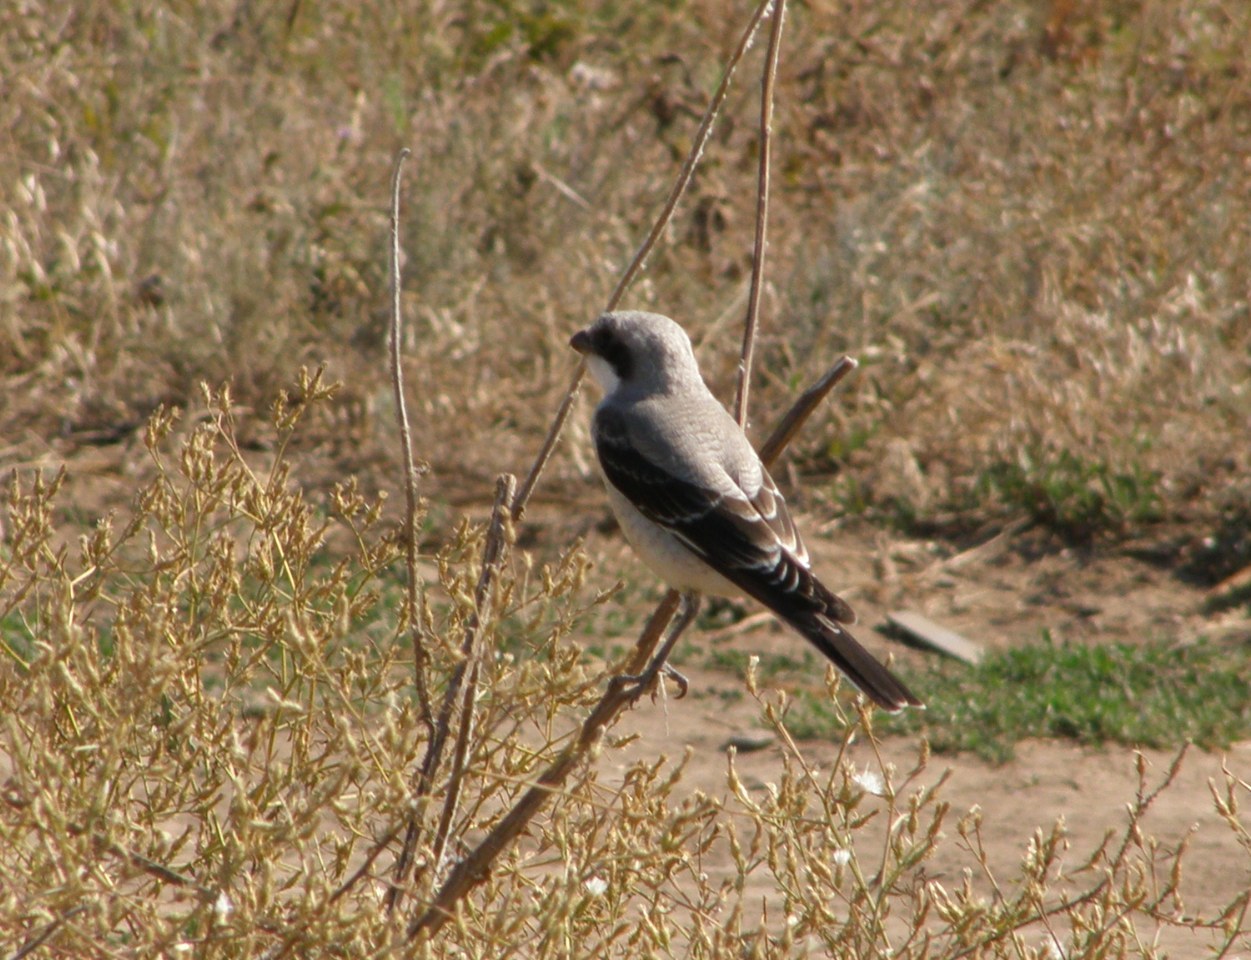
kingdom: Animalia
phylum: Chordata
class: Aves
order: Passeriformes
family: Laniidae
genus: Lanius
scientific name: Lanius minor
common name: Lesser grey shrike
